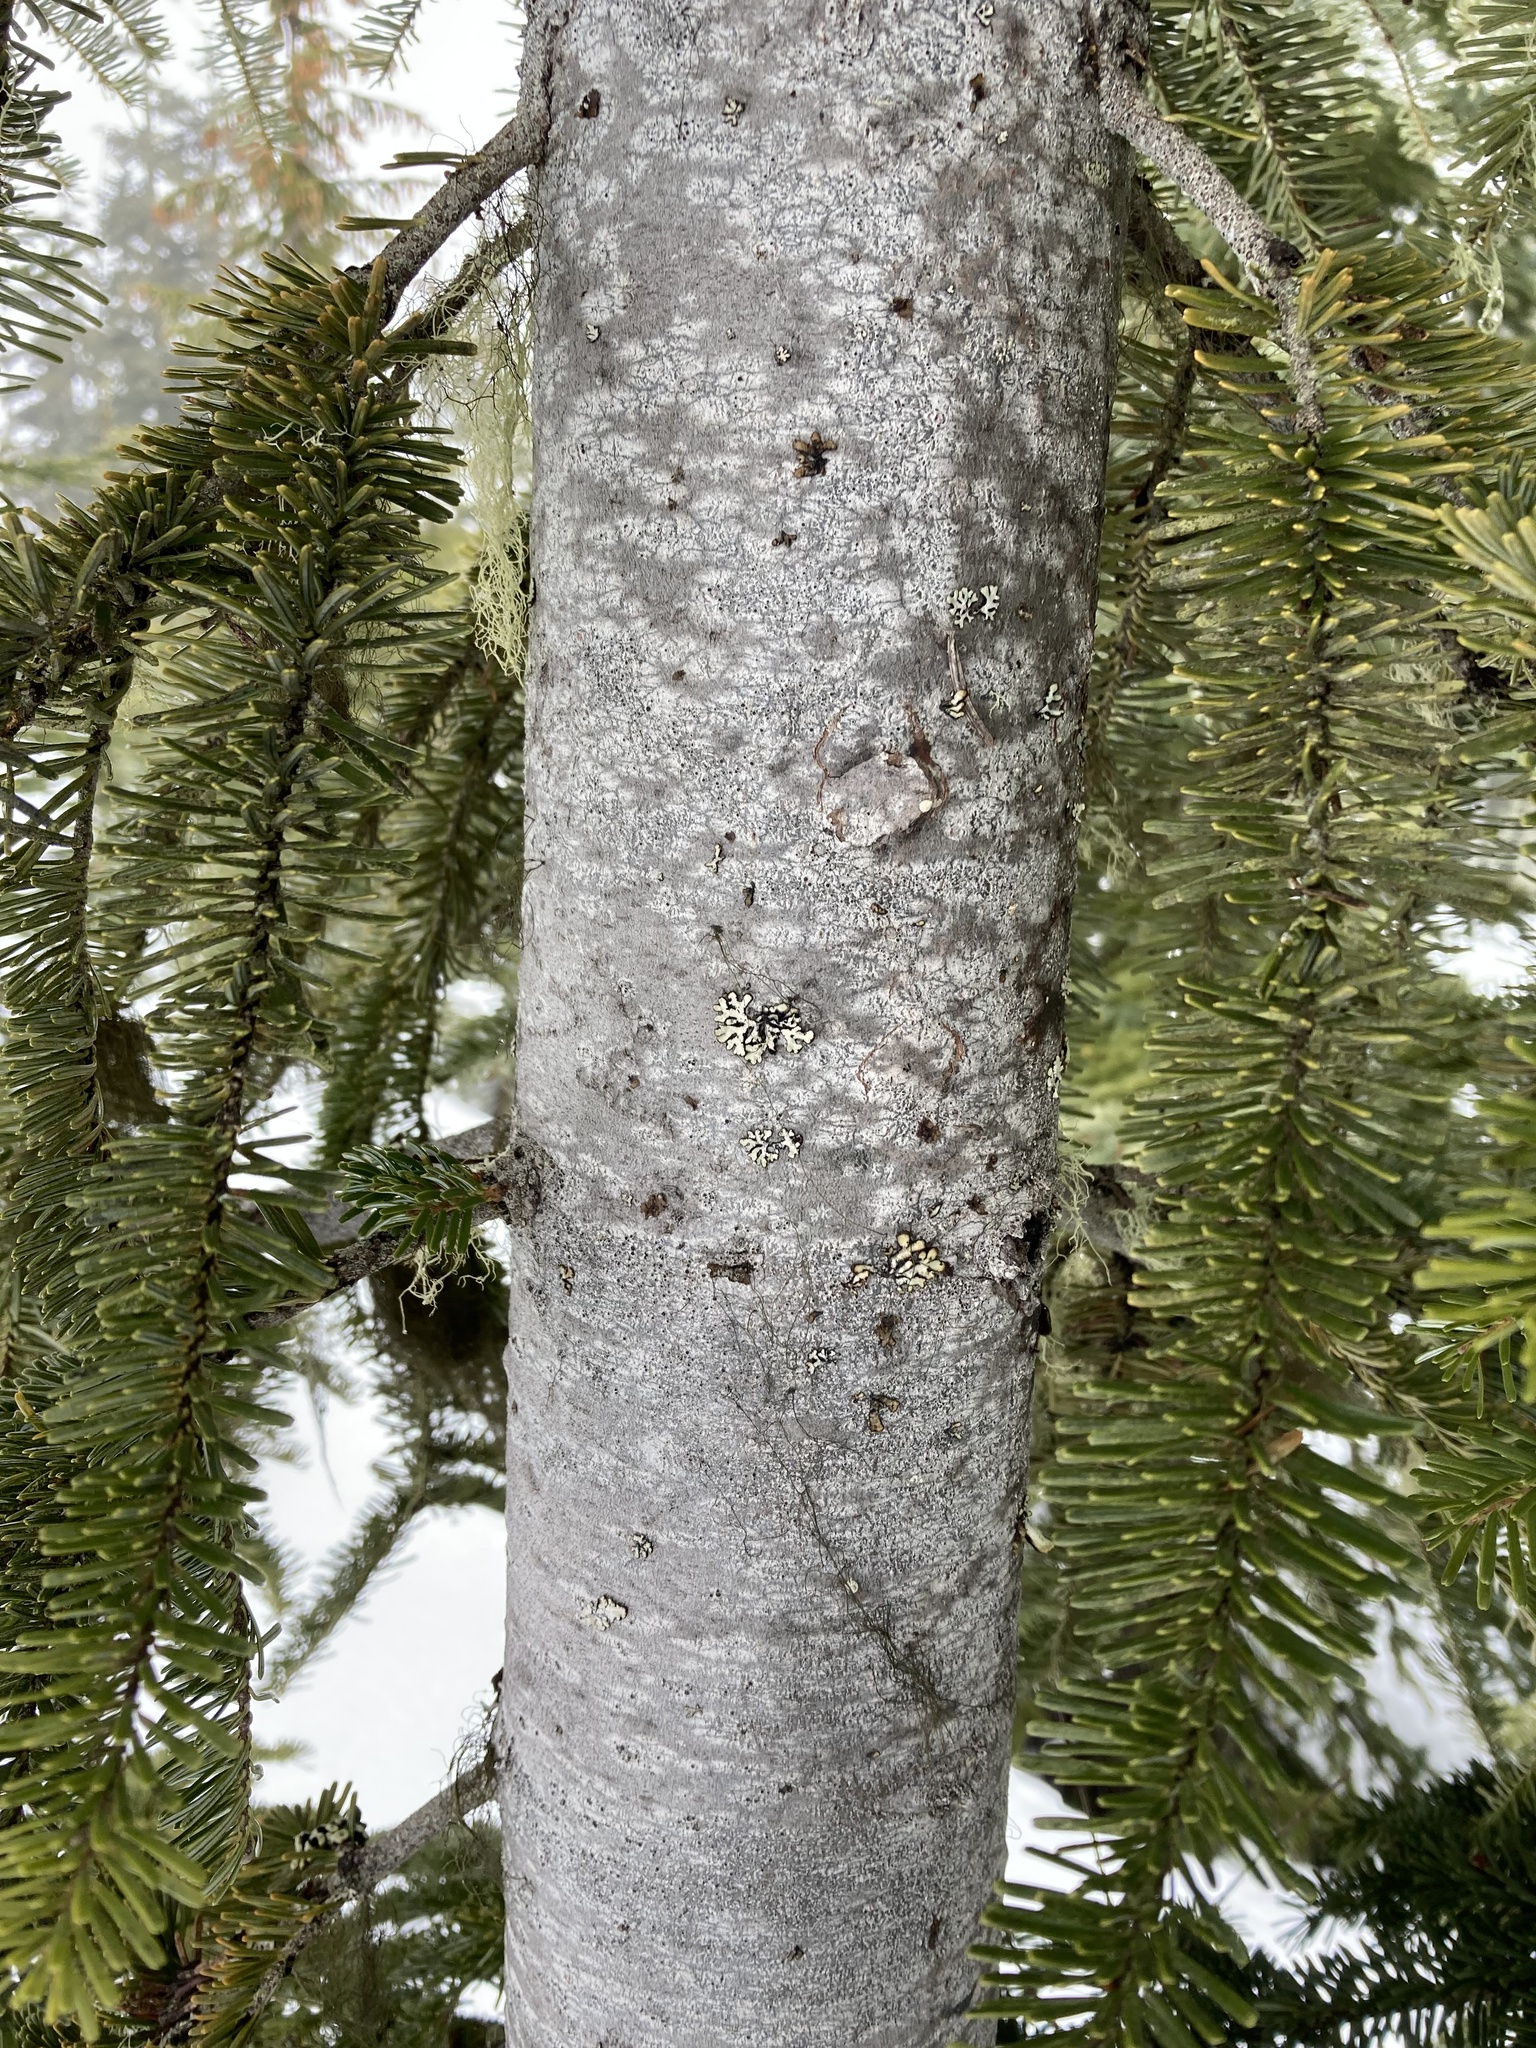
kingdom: Plantae
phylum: Tracheophyta
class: Pinopsida
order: Pinales
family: Pinaceae
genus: Abies
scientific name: Abies amabilis
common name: Pacific silver fir
